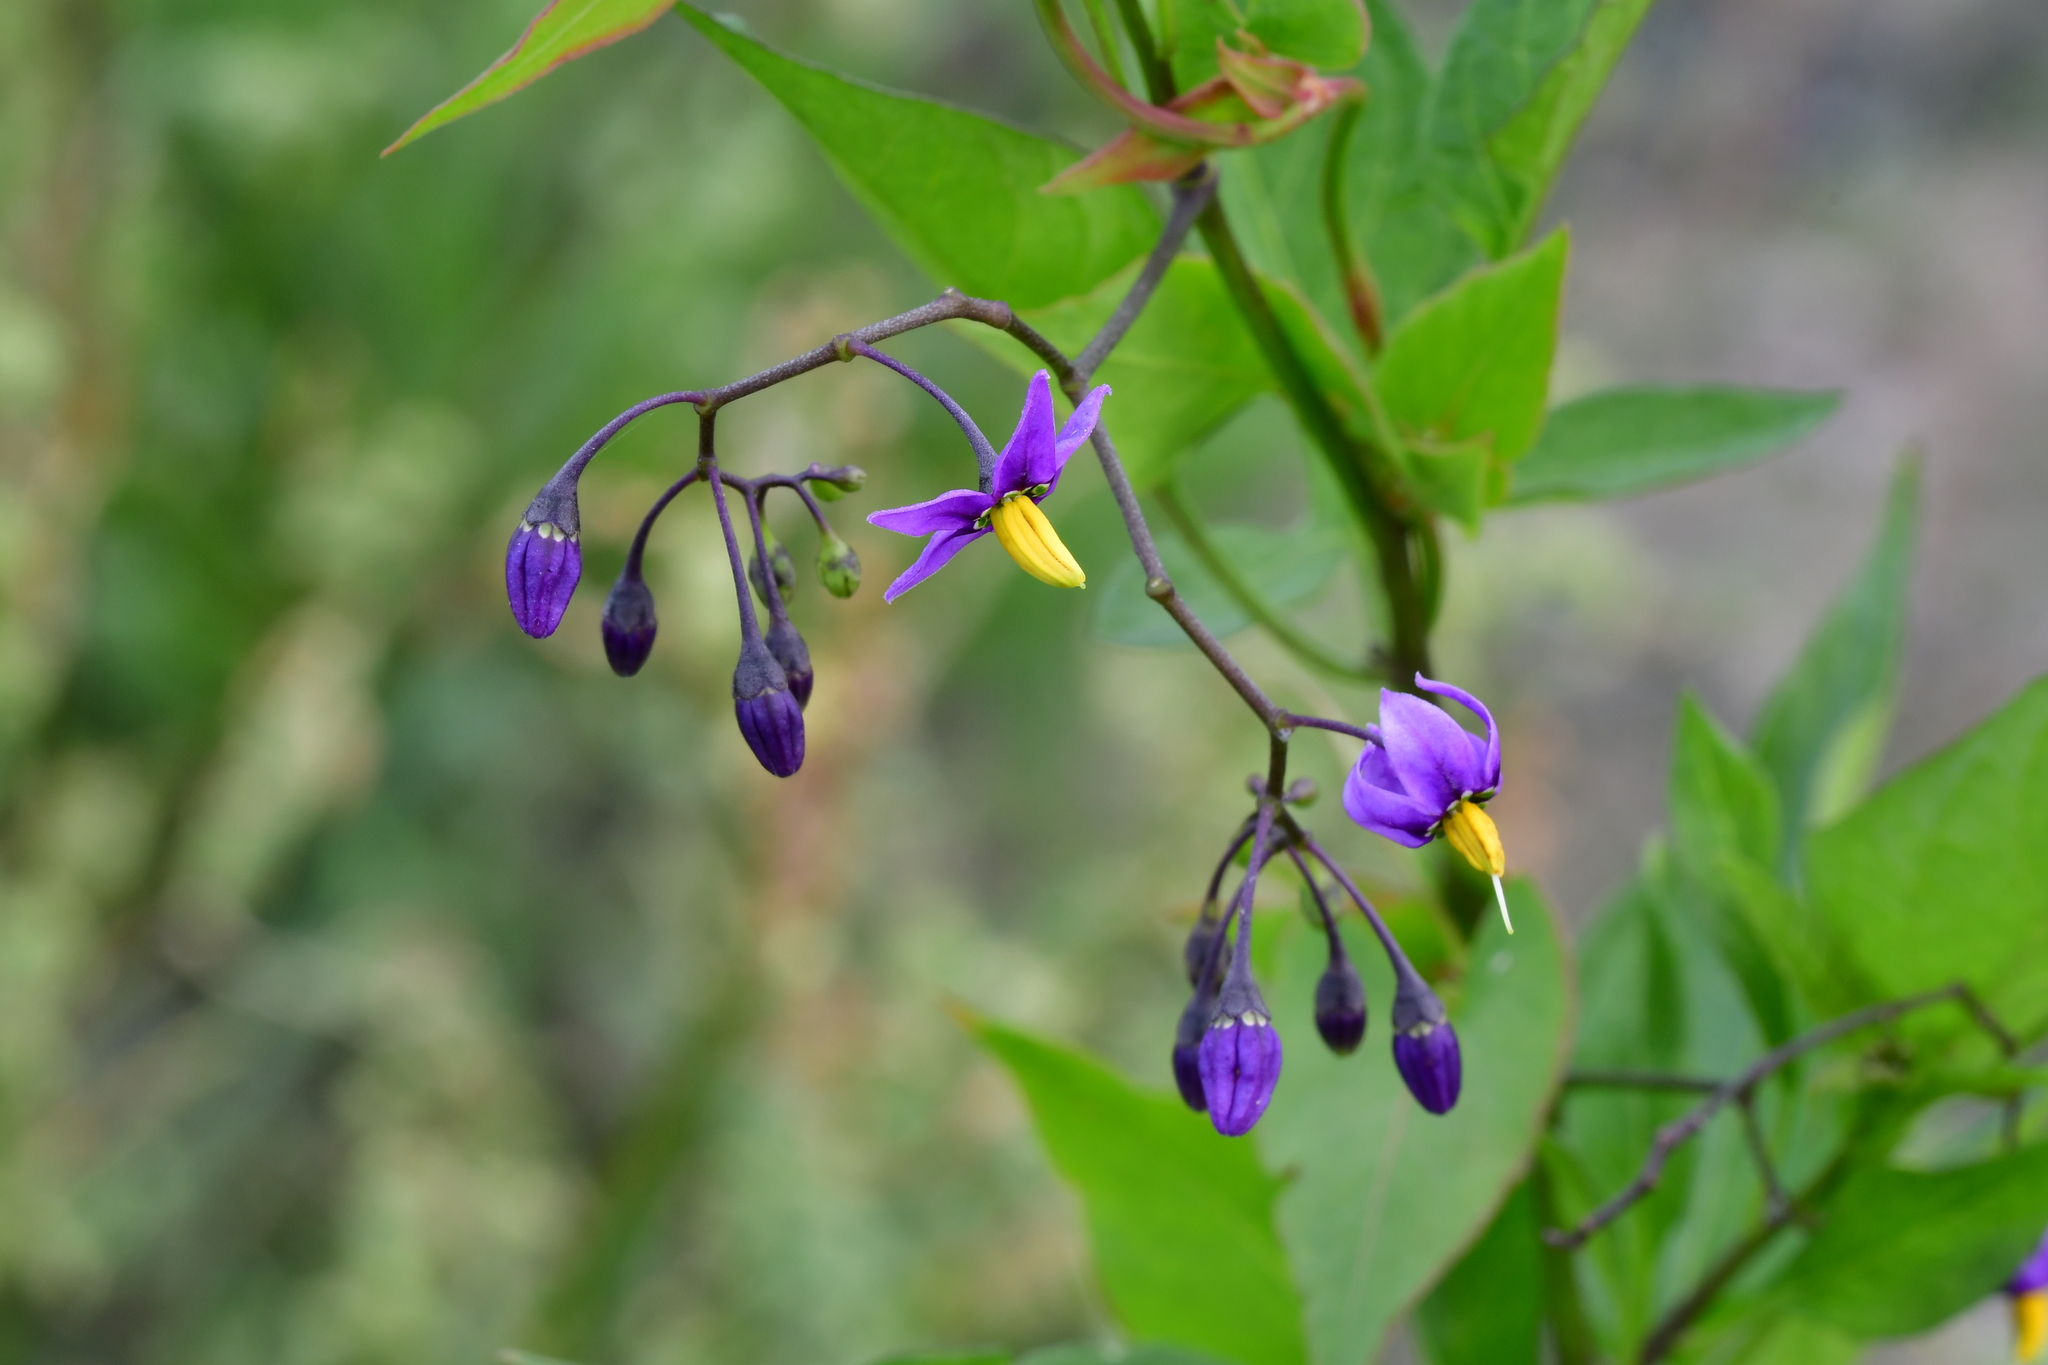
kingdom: Plantae
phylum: Tracheophyta
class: Magnoliopsida
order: Solanales
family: Solanaceae
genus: Solanum
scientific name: Solanum dulcamara
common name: Climbing nightshade
